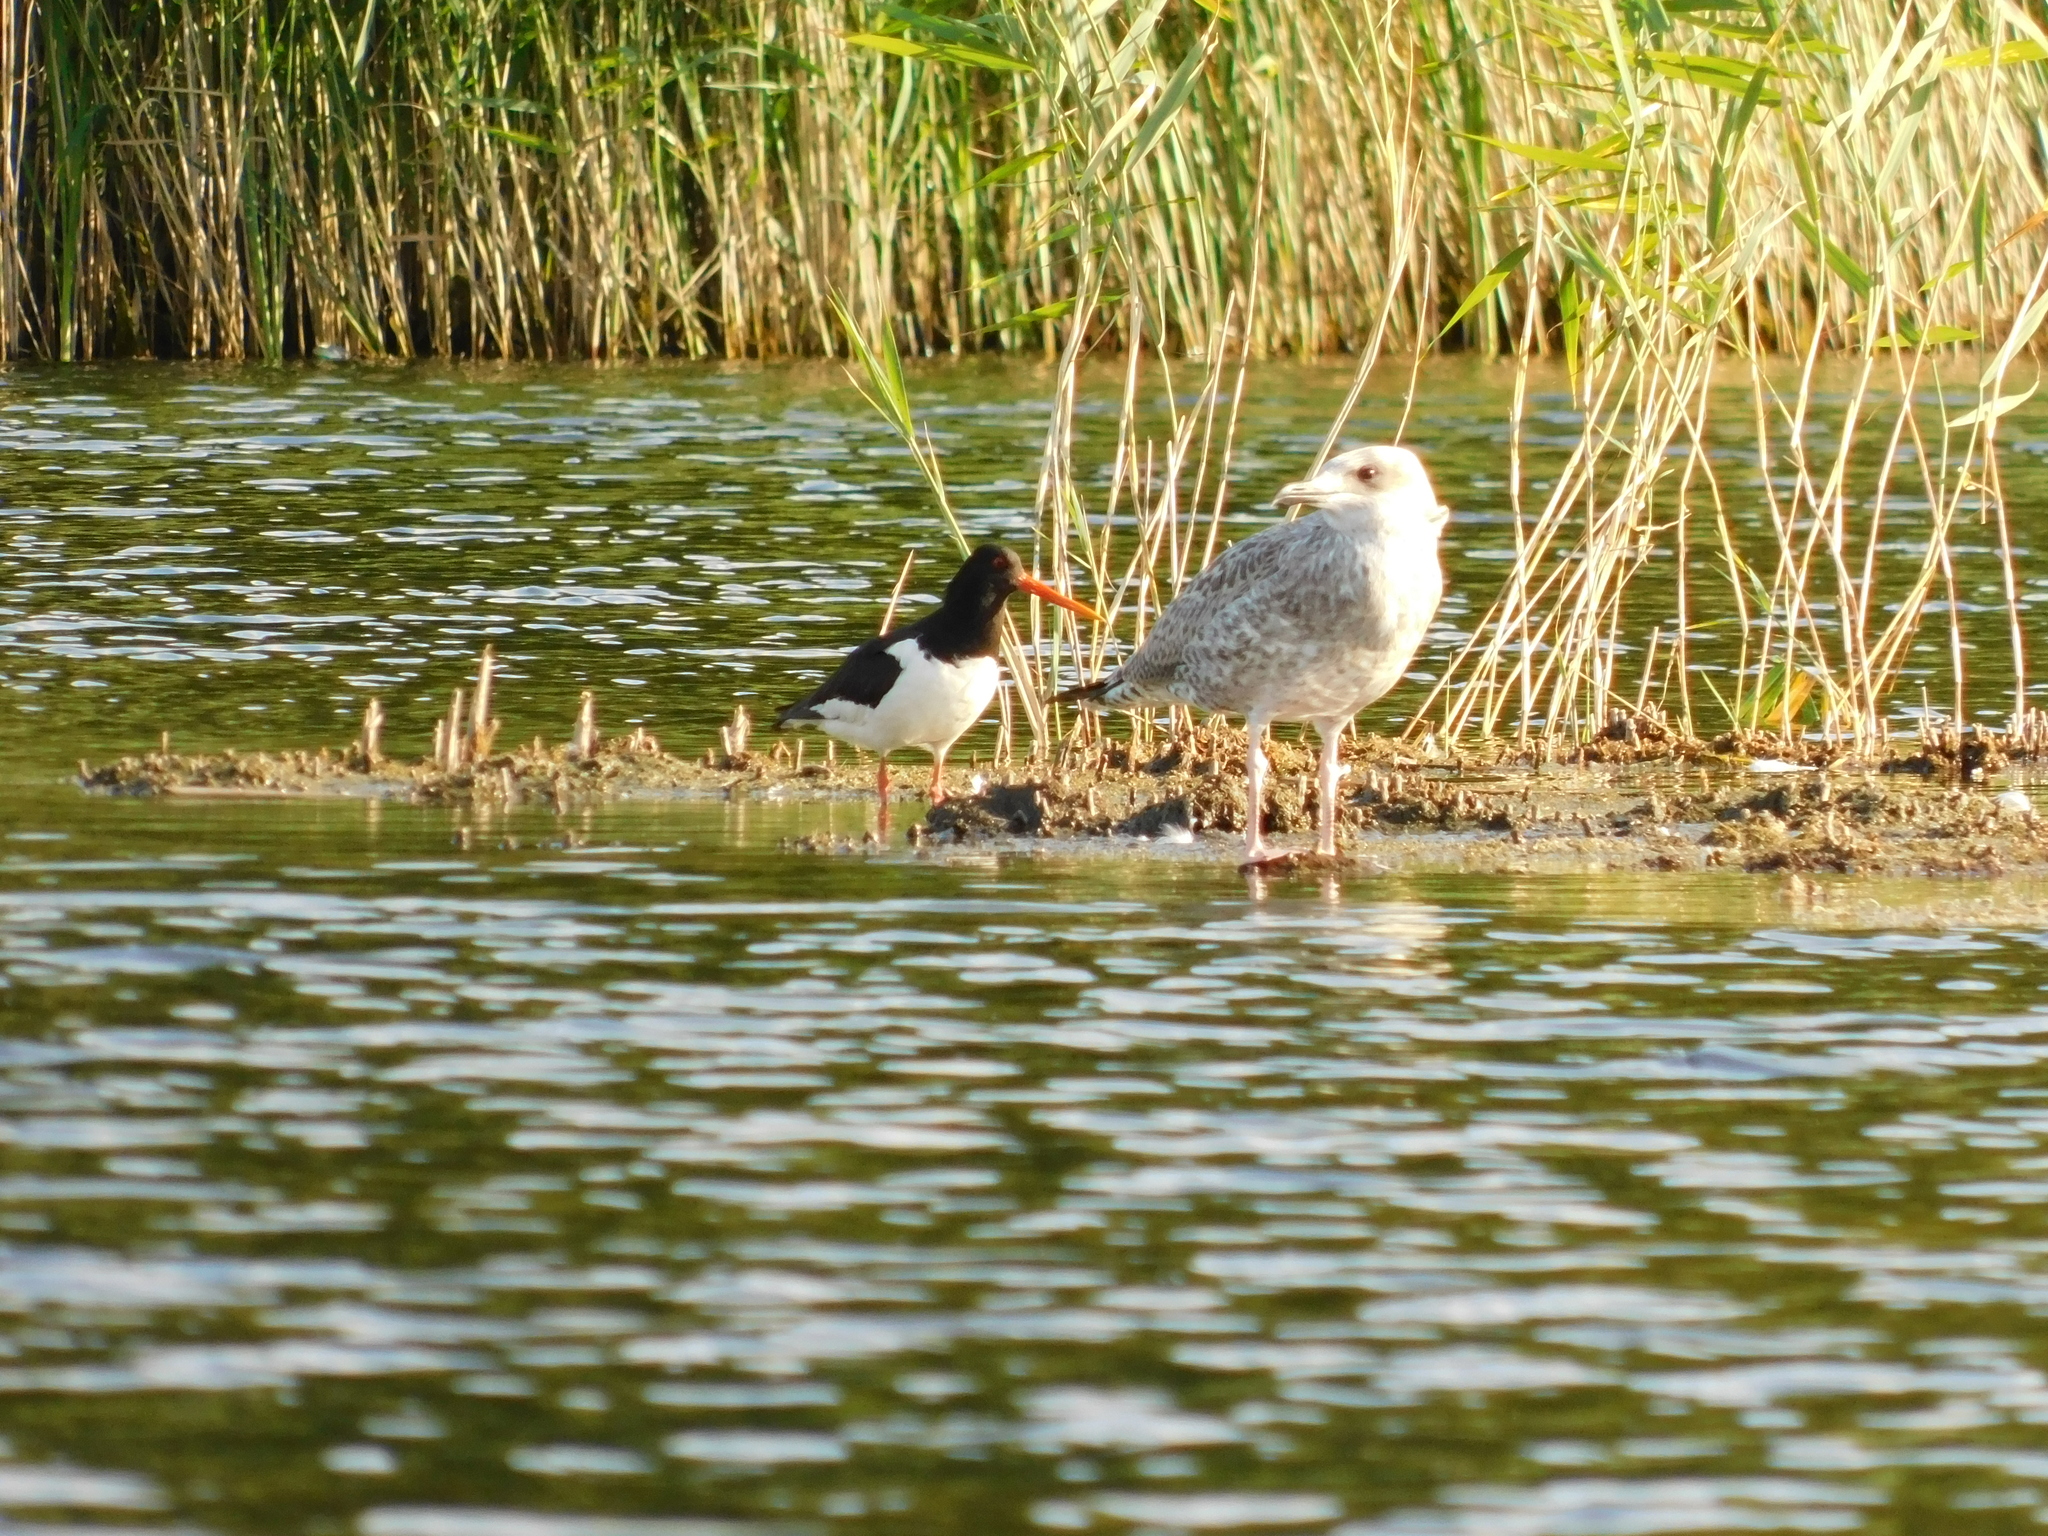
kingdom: Animalia
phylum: Chordata
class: Aves
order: Charadriiformes
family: Haematopodidae
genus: Haematopus
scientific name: Haematopus ostralegus
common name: Eurasian oystercatcher
